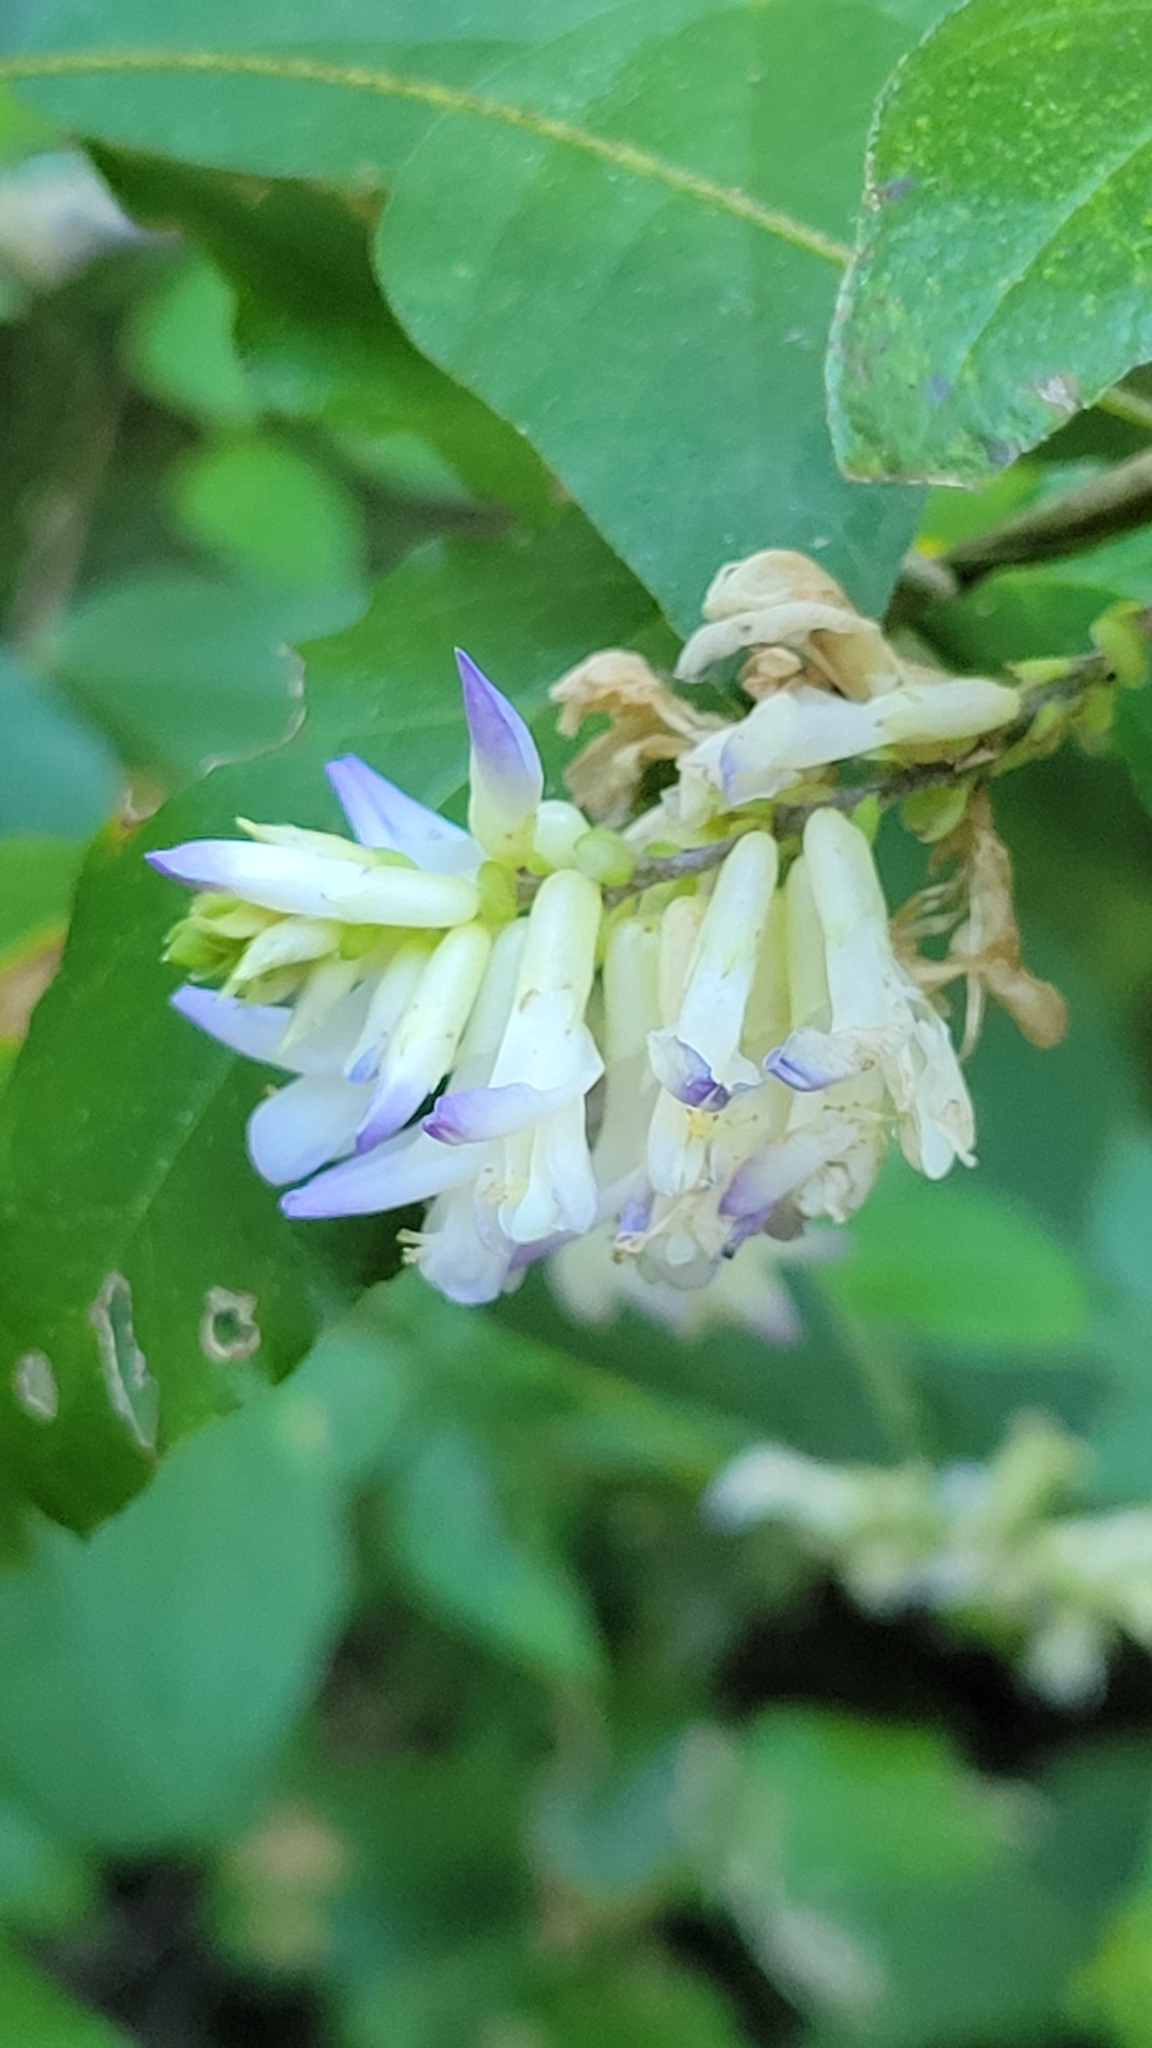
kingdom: Plantae
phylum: Tracheophyta
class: Magnoliopsida
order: Fabales
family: Fabaceae
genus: Amphicarpaea
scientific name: Amphicarpaea bracteata
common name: American hog peanut
